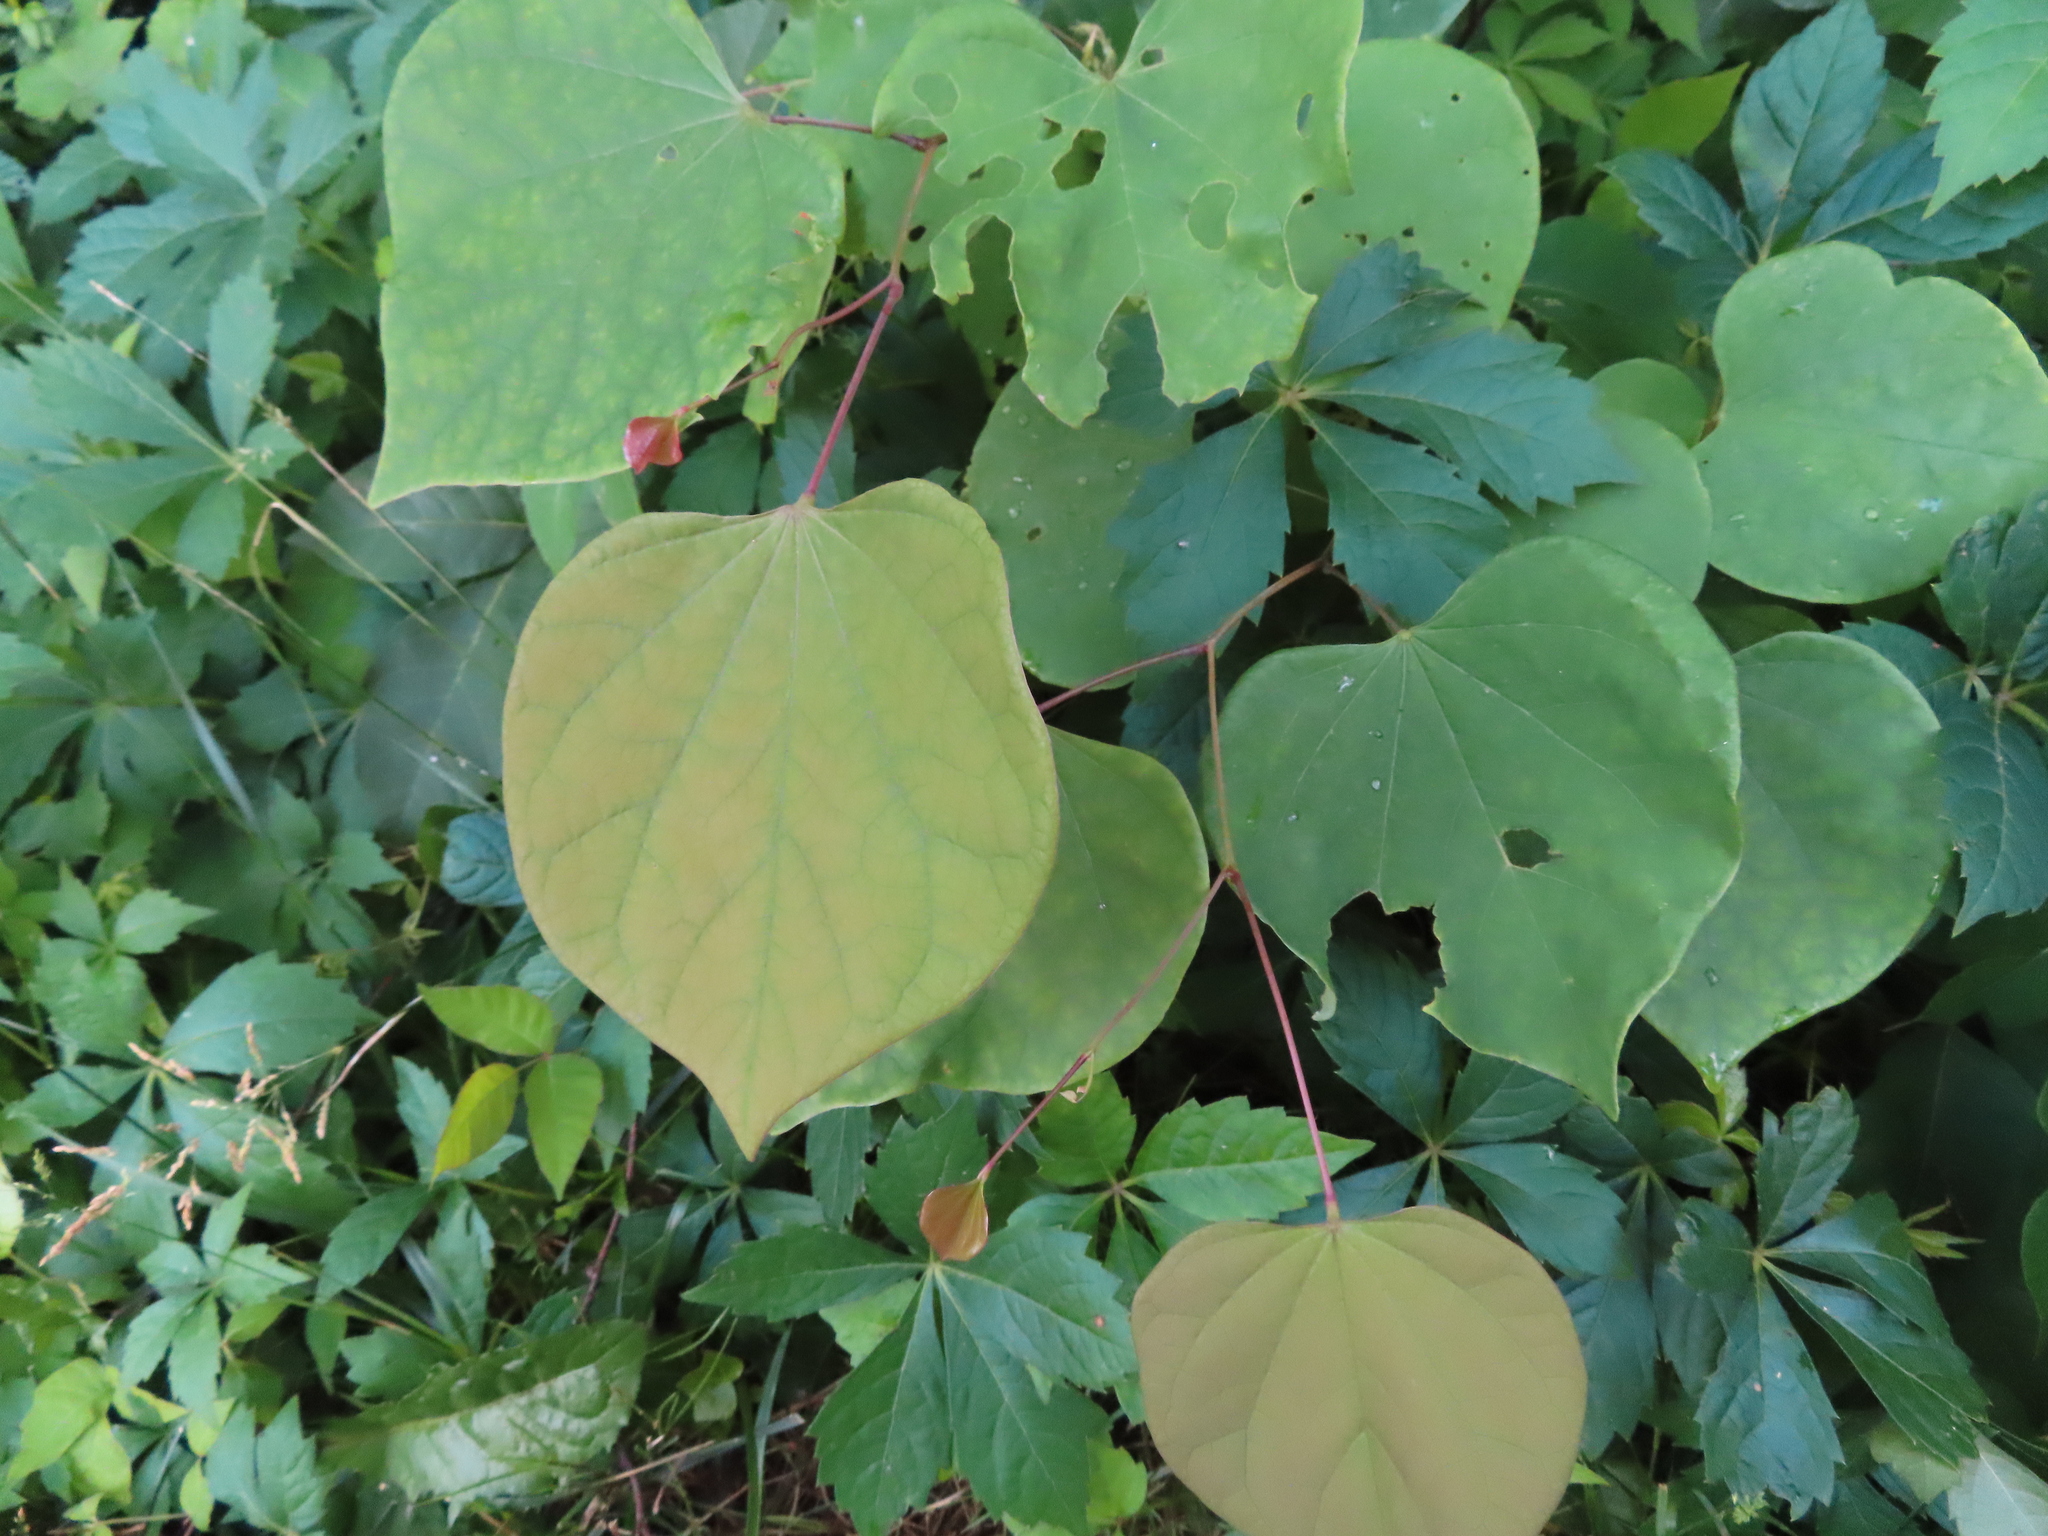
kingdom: Plantae
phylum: Tracheophyta
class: Magnoliopsida
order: Fabales
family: Fabaceae
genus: Cercis
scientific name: Cercis canadensis
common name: Eastern redbud
